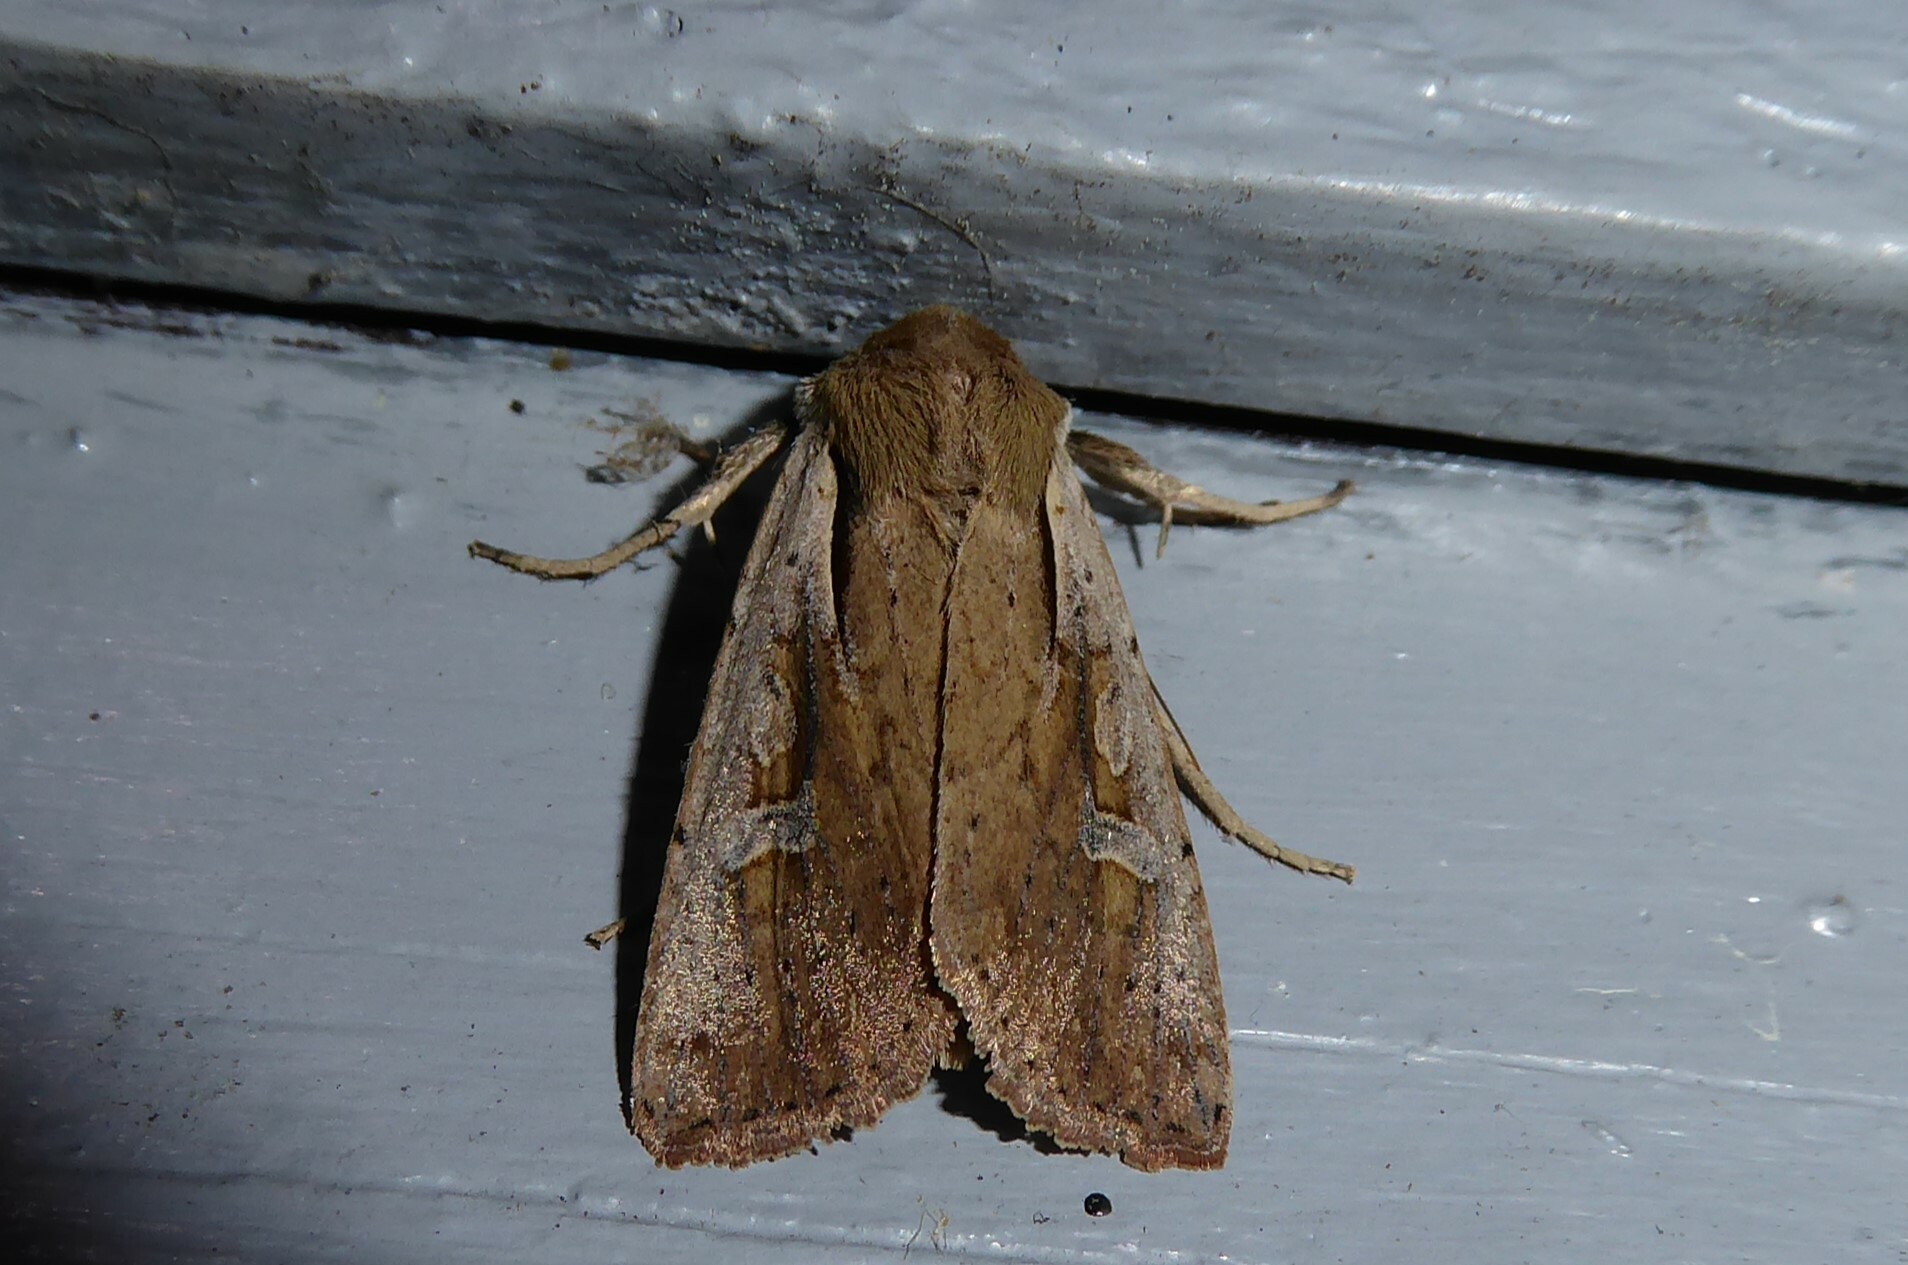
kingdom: Animalia
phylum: Arthropoda
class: Insecta
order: Lepidoptera
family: Noctuidae
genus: Ichneutica
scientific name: Ichneutica atristriga
